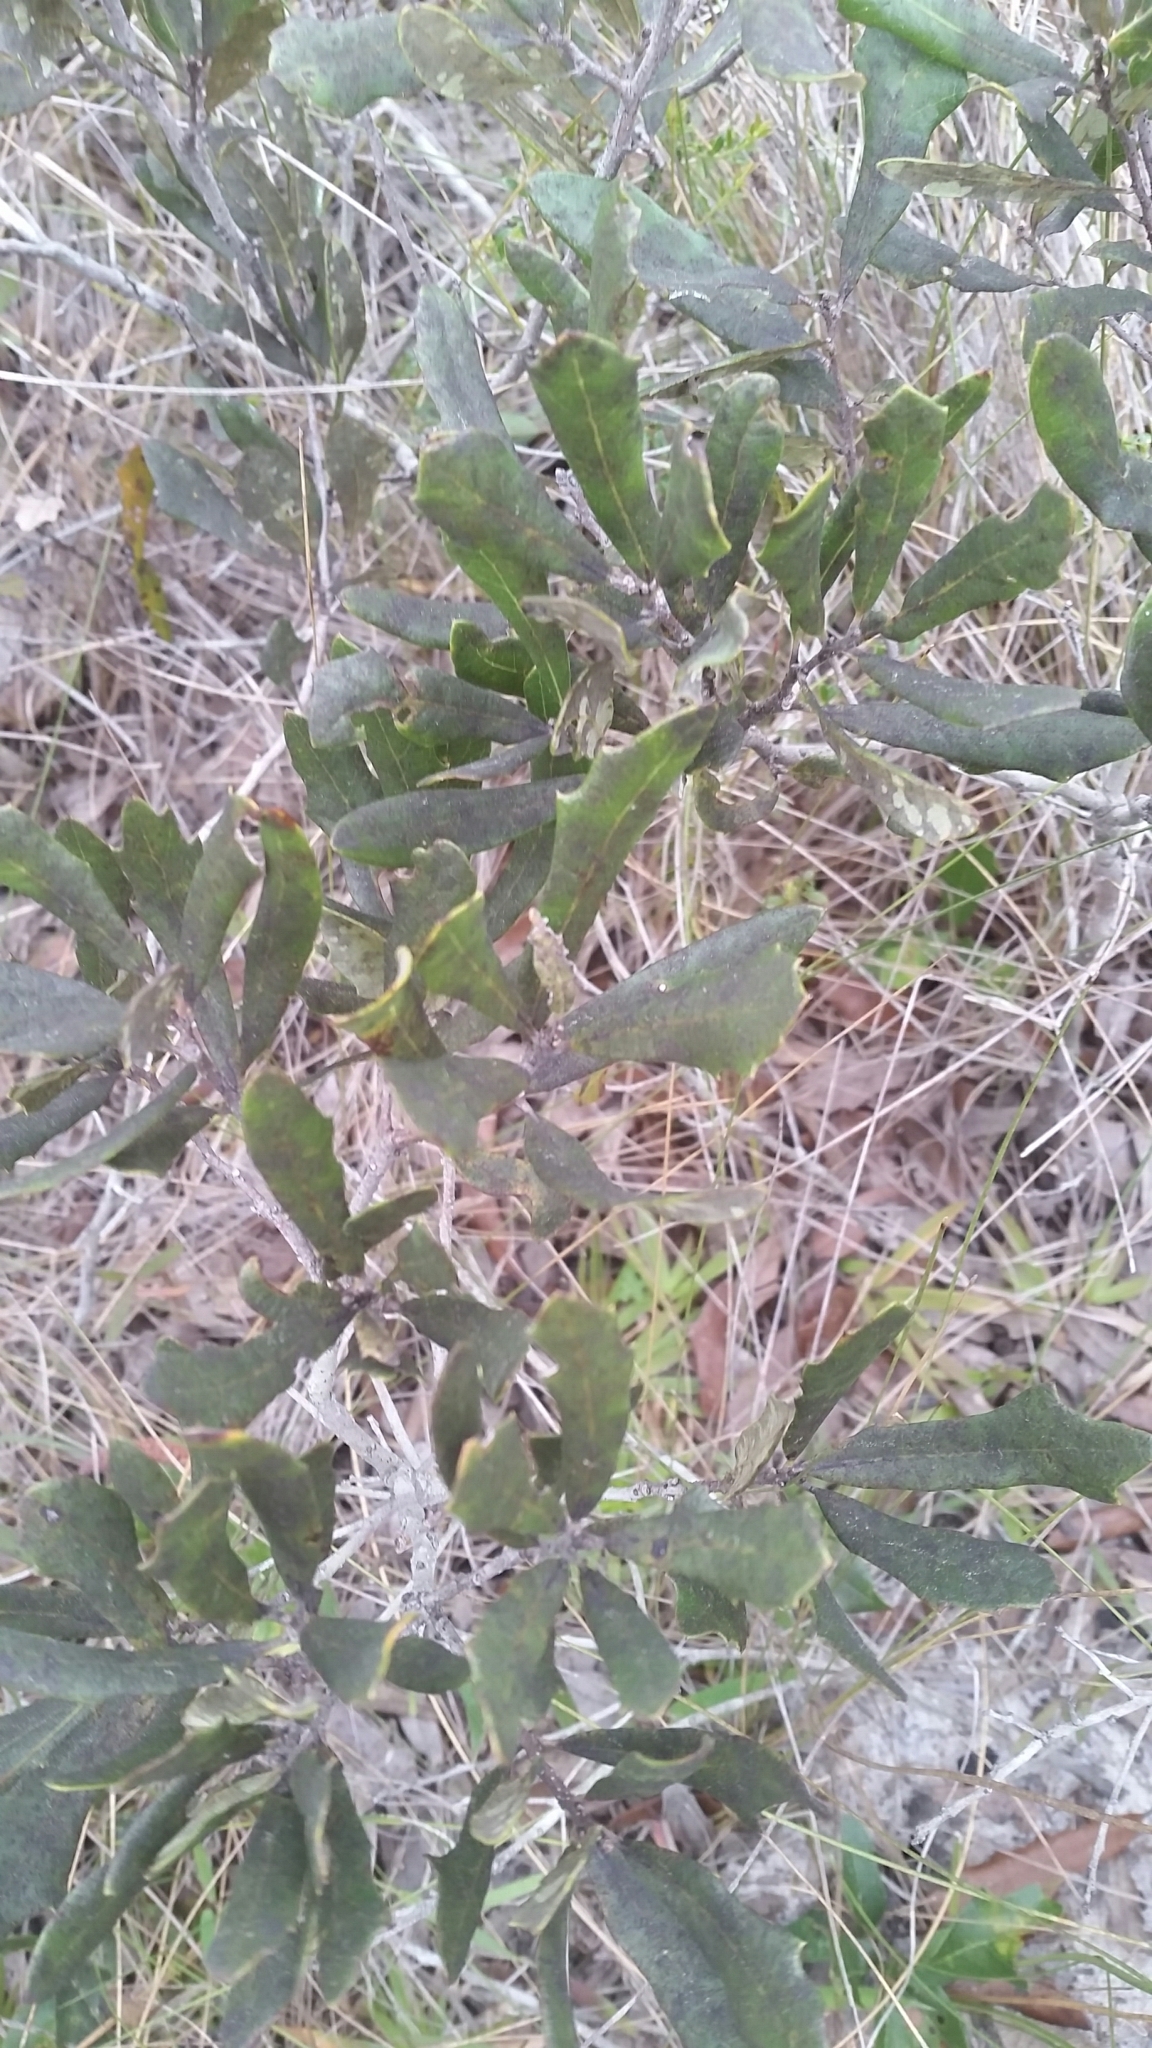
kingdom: Plantae
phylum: Tracheophyta
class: Magnoliopsida
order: Fagales
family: Fagaceae
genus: Quercus
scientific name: Quercus minima
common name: Dwarf live oak
